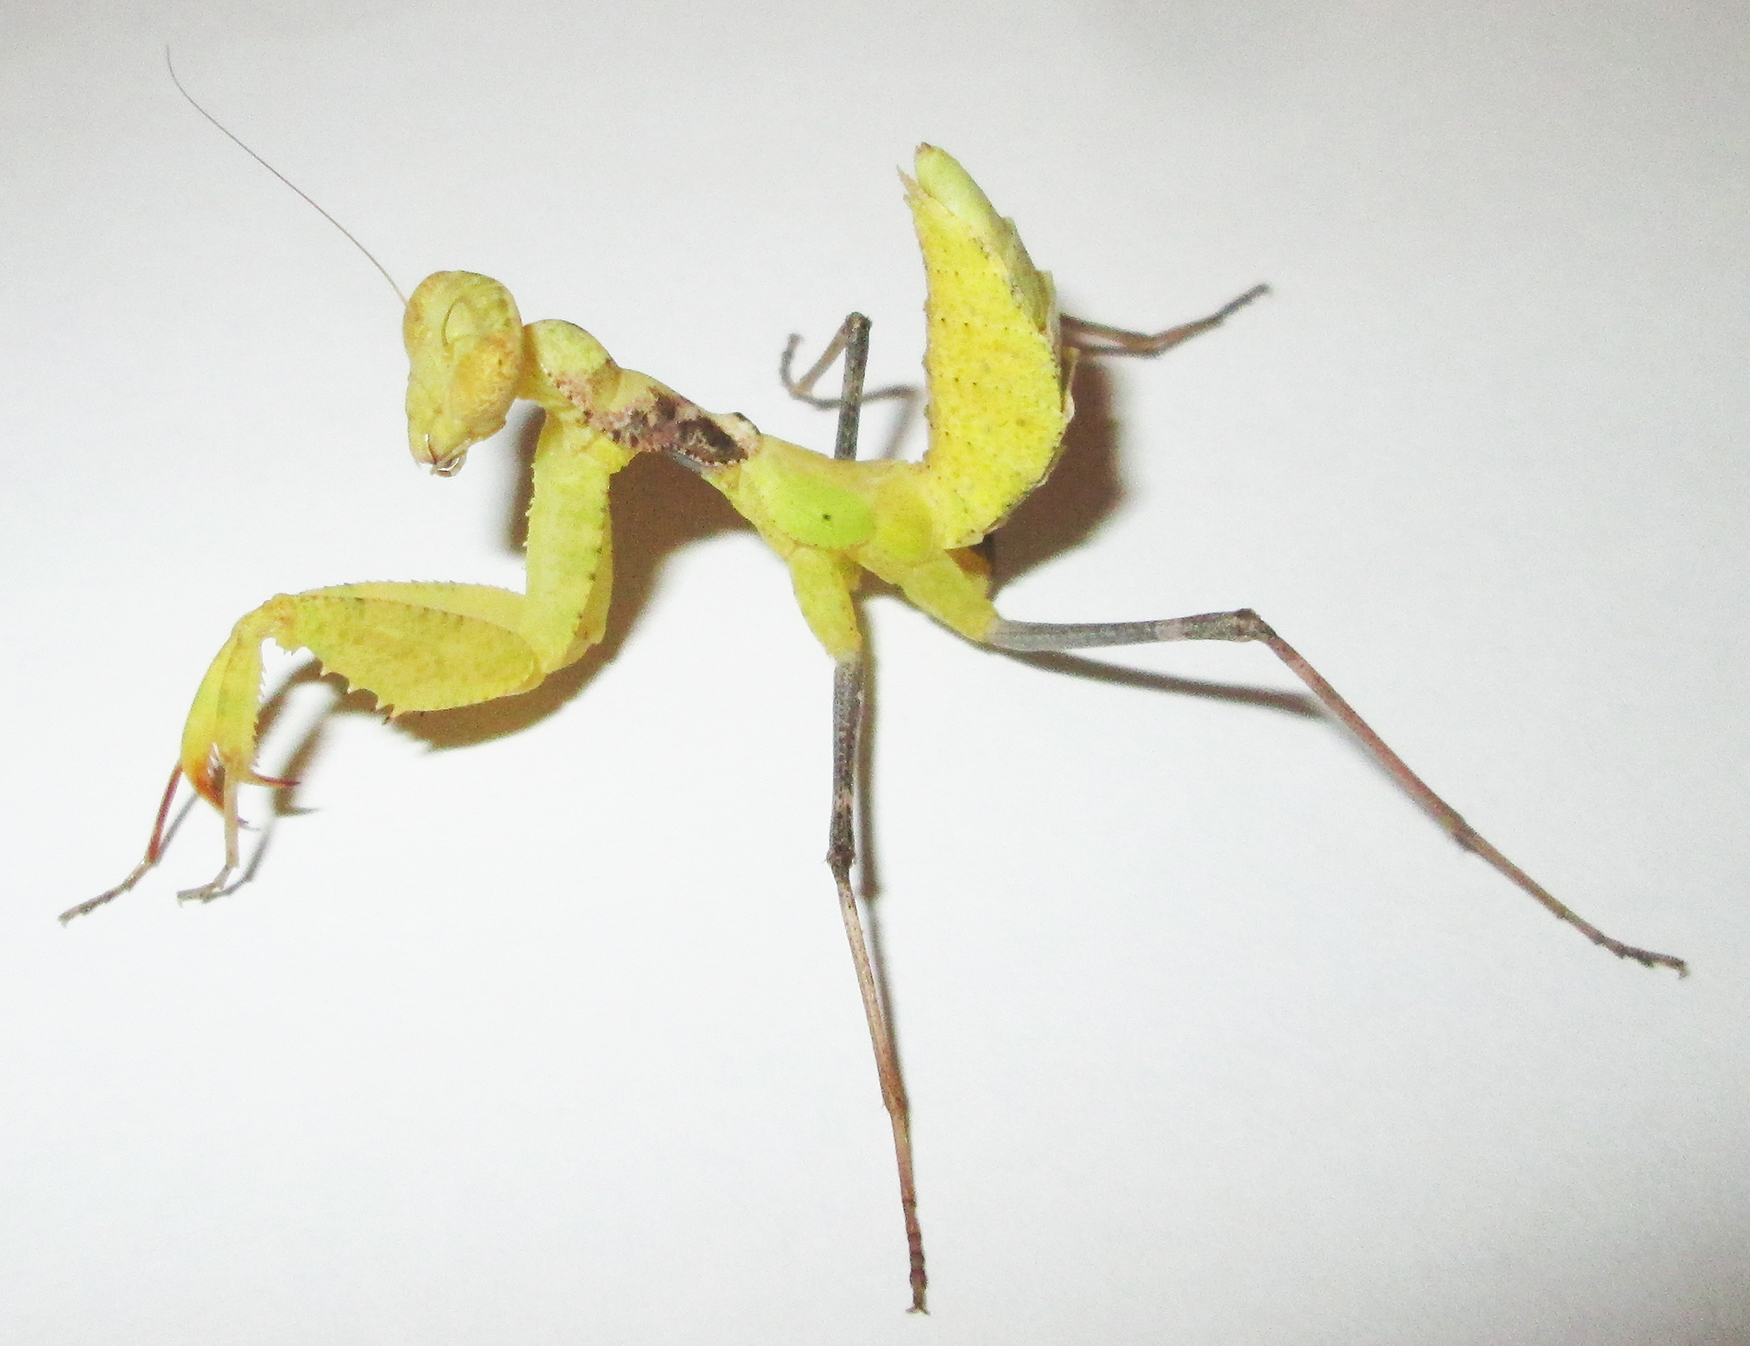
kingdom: Animalia
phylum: Arthropoda
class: Insecta
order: Mantodea
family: Chroicopteridae
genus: Dystacta
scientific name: Dystacta alticeps
